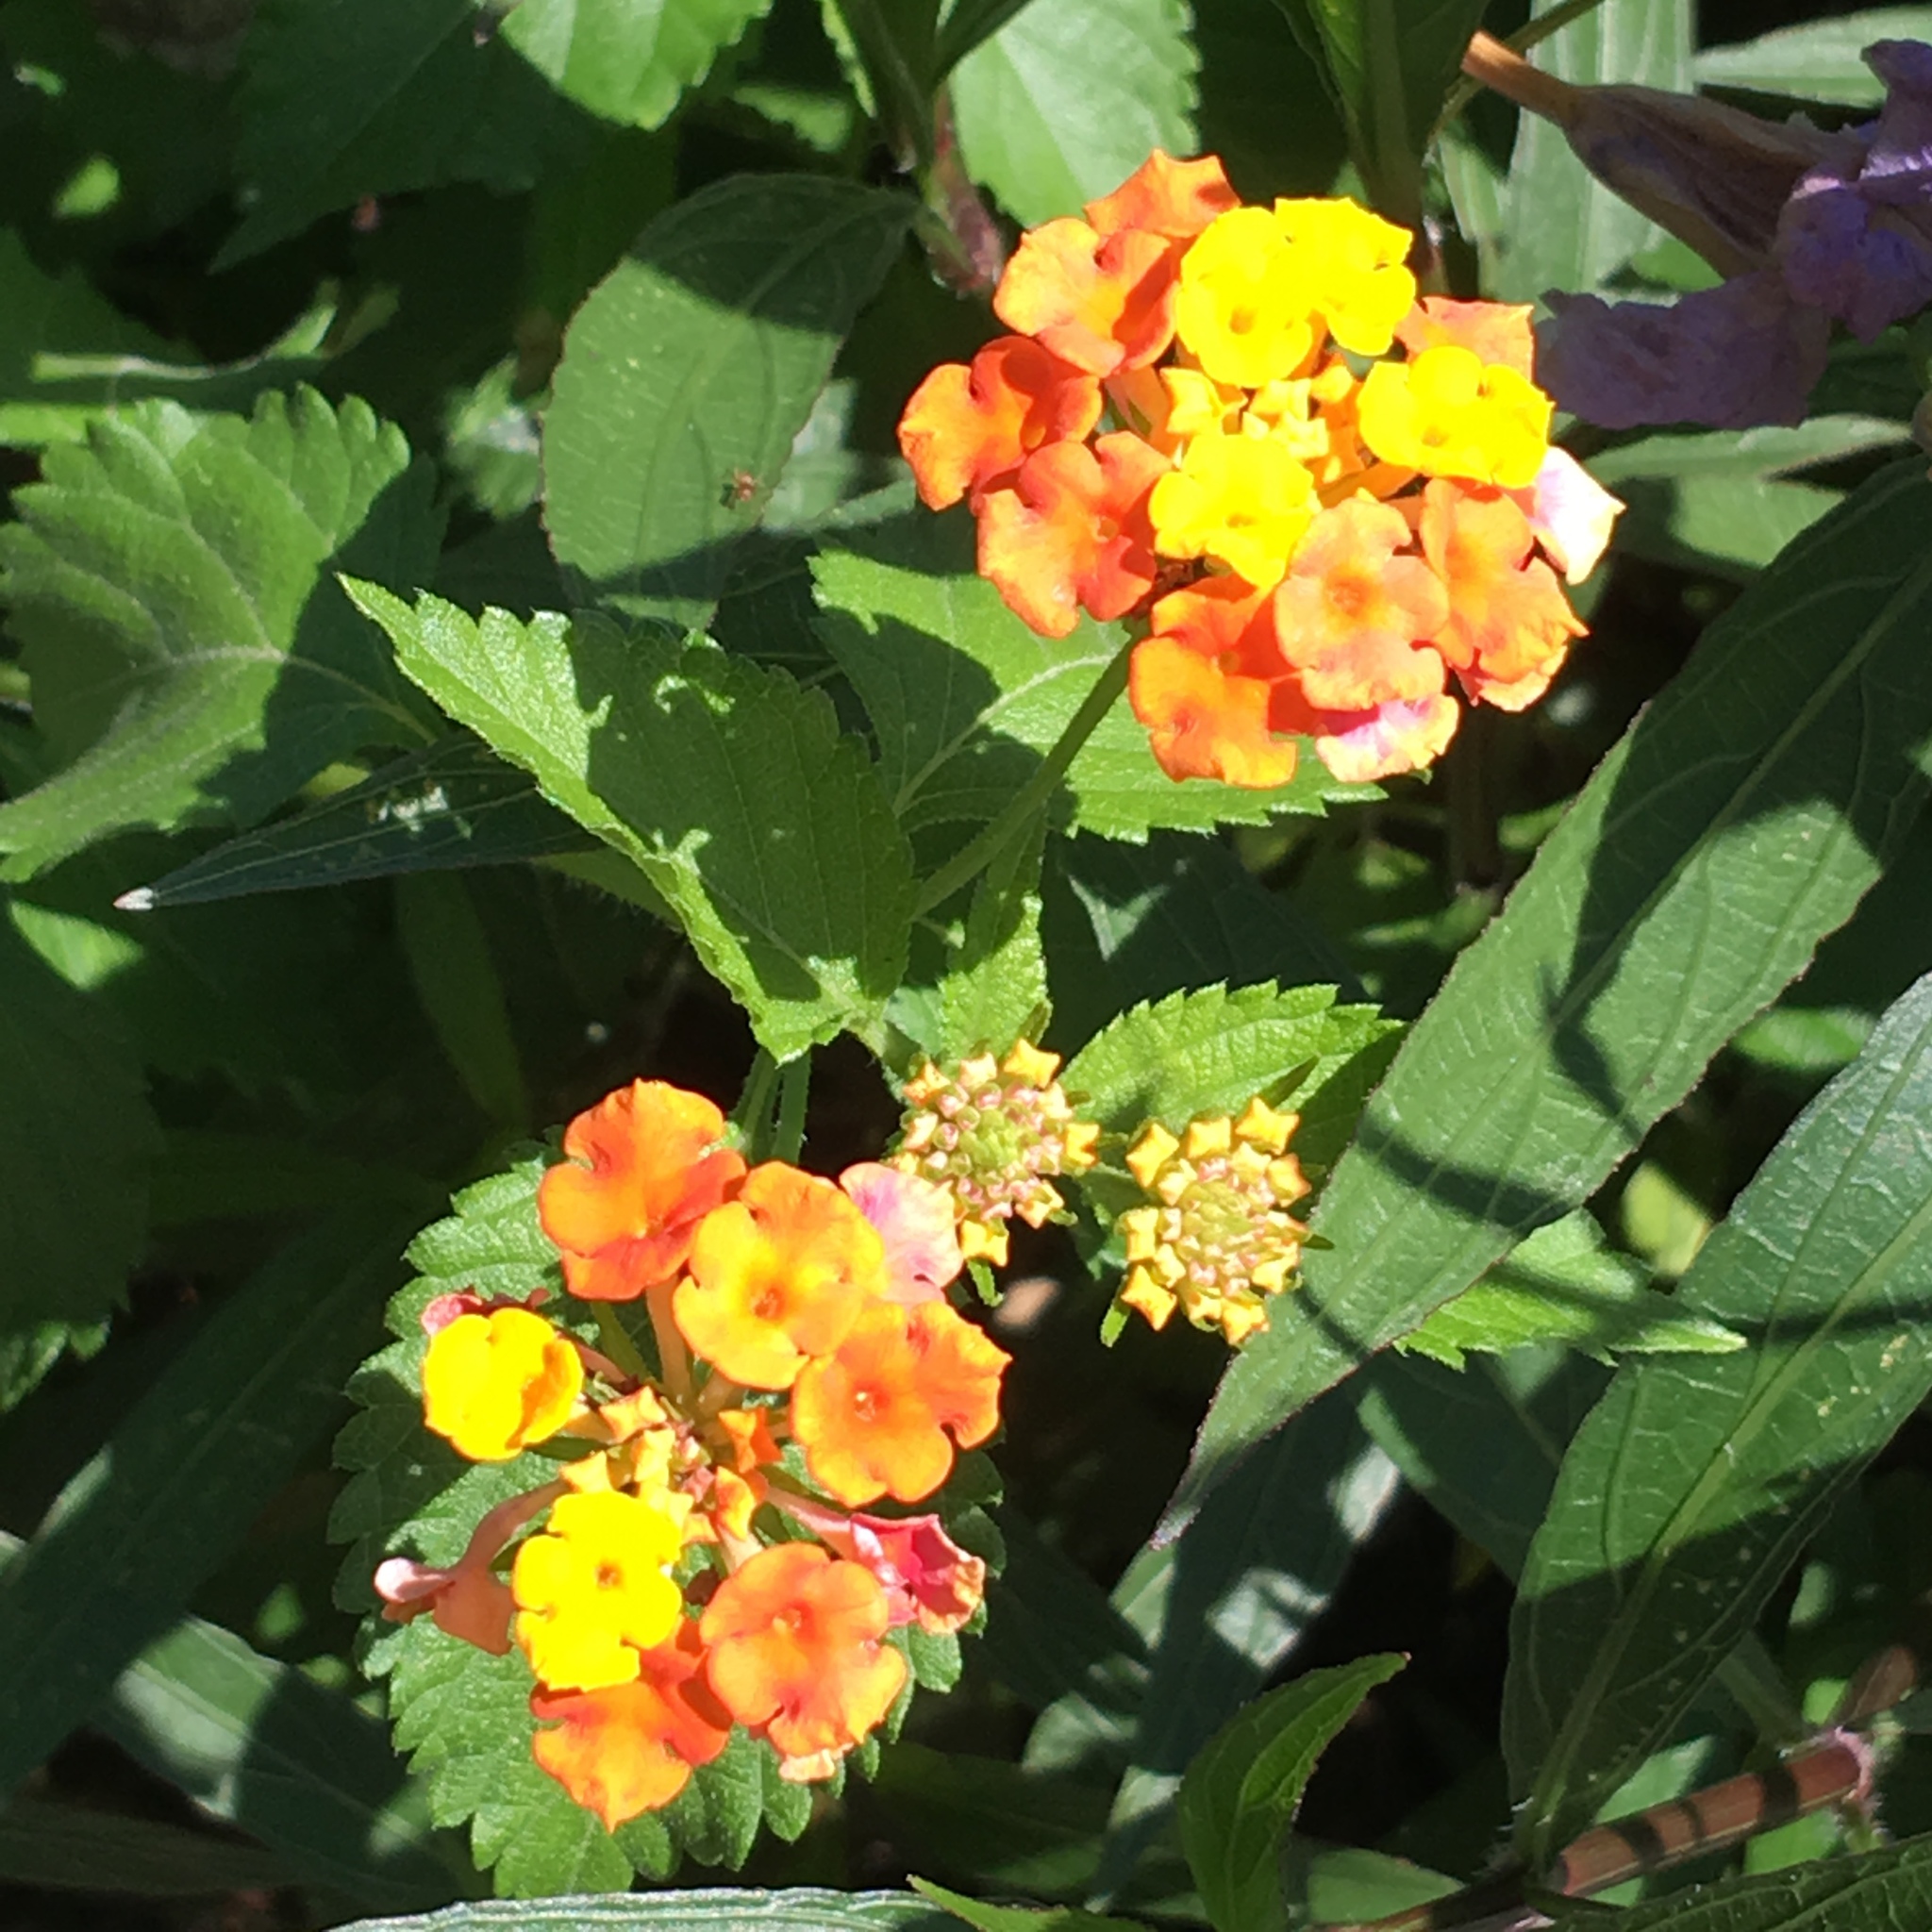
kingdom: Plantae
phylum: Tracheophyta
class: Magnoliopsida
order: Lamiales
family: Verbenaceae
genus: Lantana
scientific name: Lantana camara
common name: Lantana
